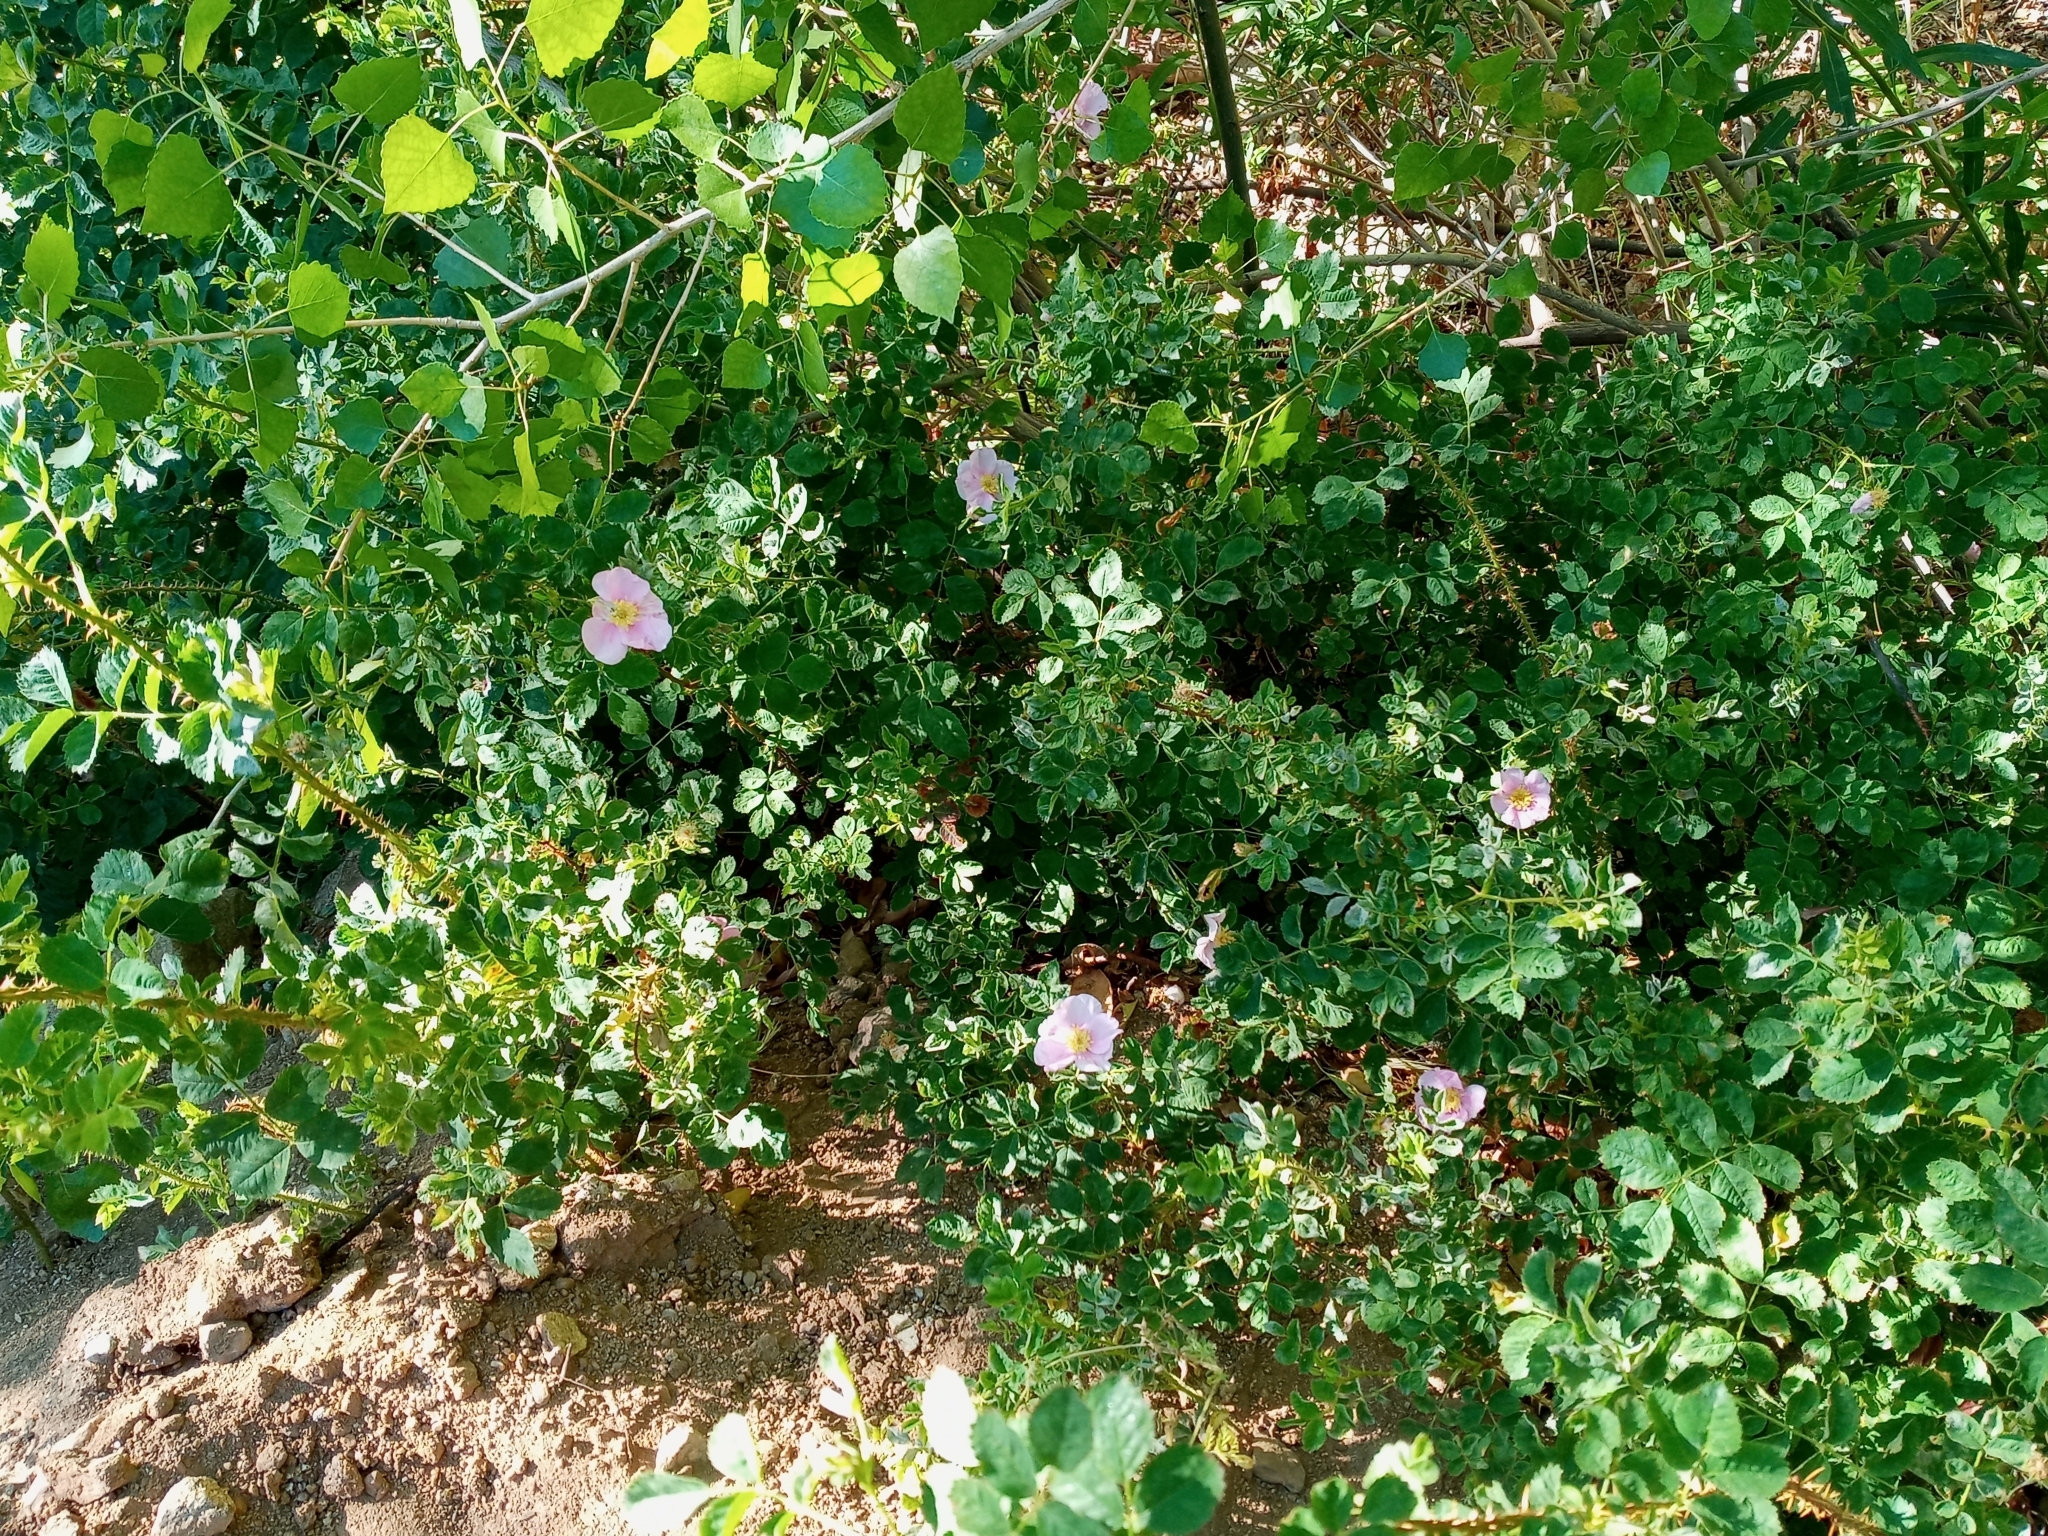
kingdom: Plantae
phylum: Tracheophyta
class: Magnoliopsida
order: Rosales
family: Rosaceae
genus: Rosa
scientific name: Rosa californica
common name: California rose
